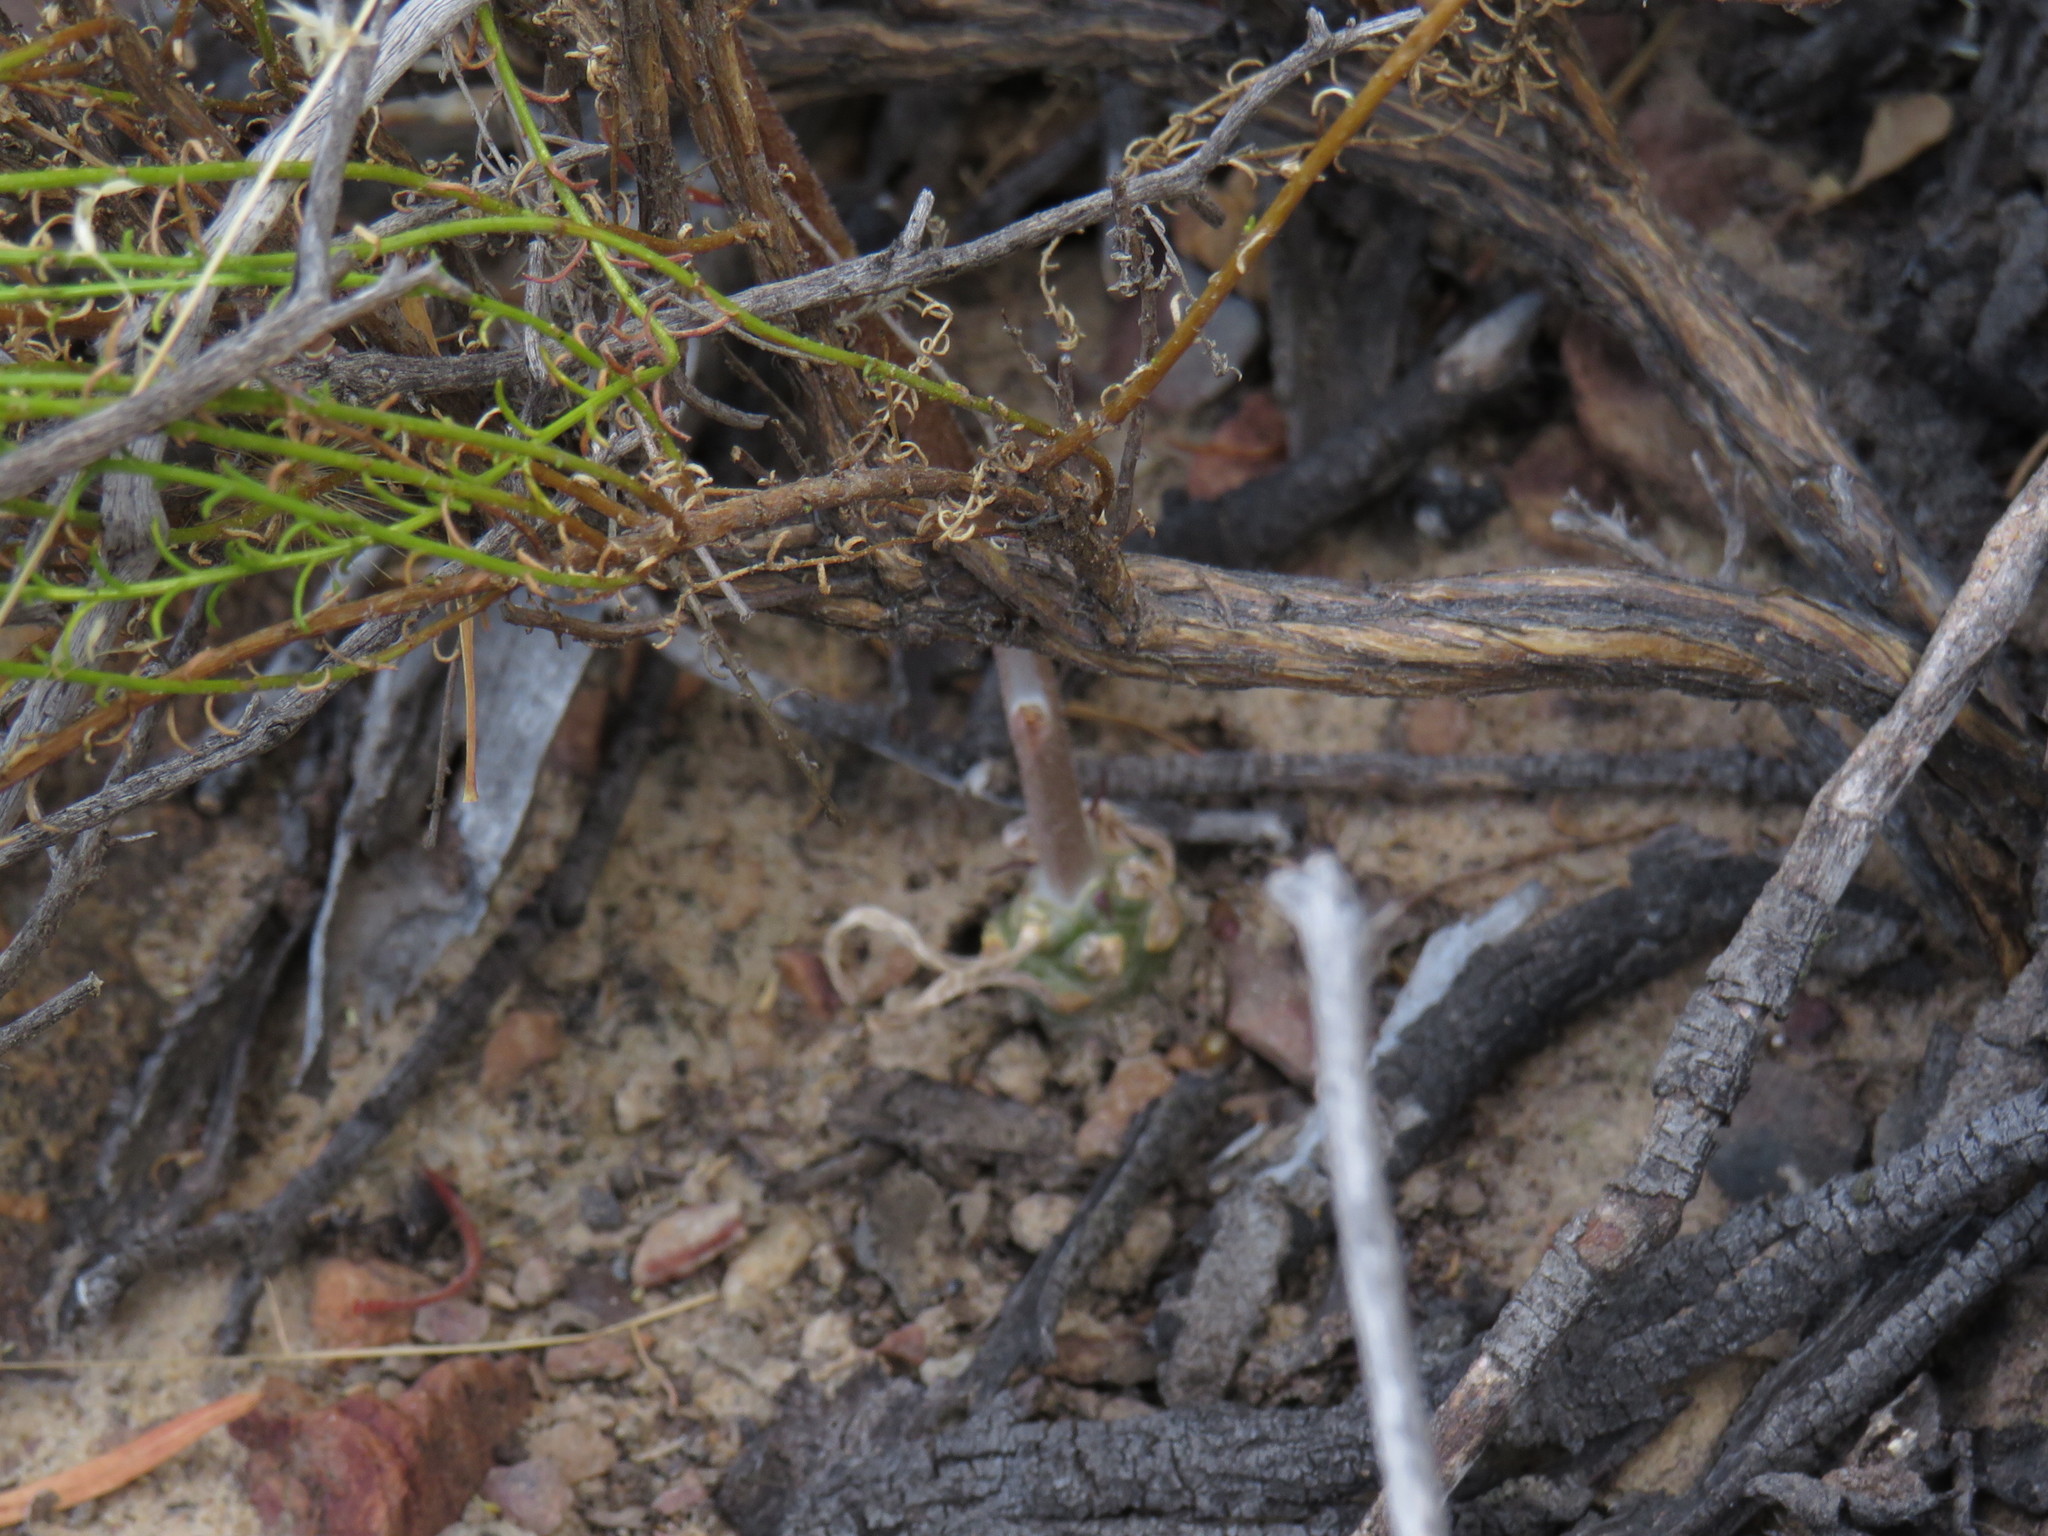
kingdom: Plantae
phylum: Tracheophyta
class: Magnoliopsida
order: Saxifragales
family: Crassulaceae
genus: Tylecodon
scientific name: Tylecodon ventricosus
